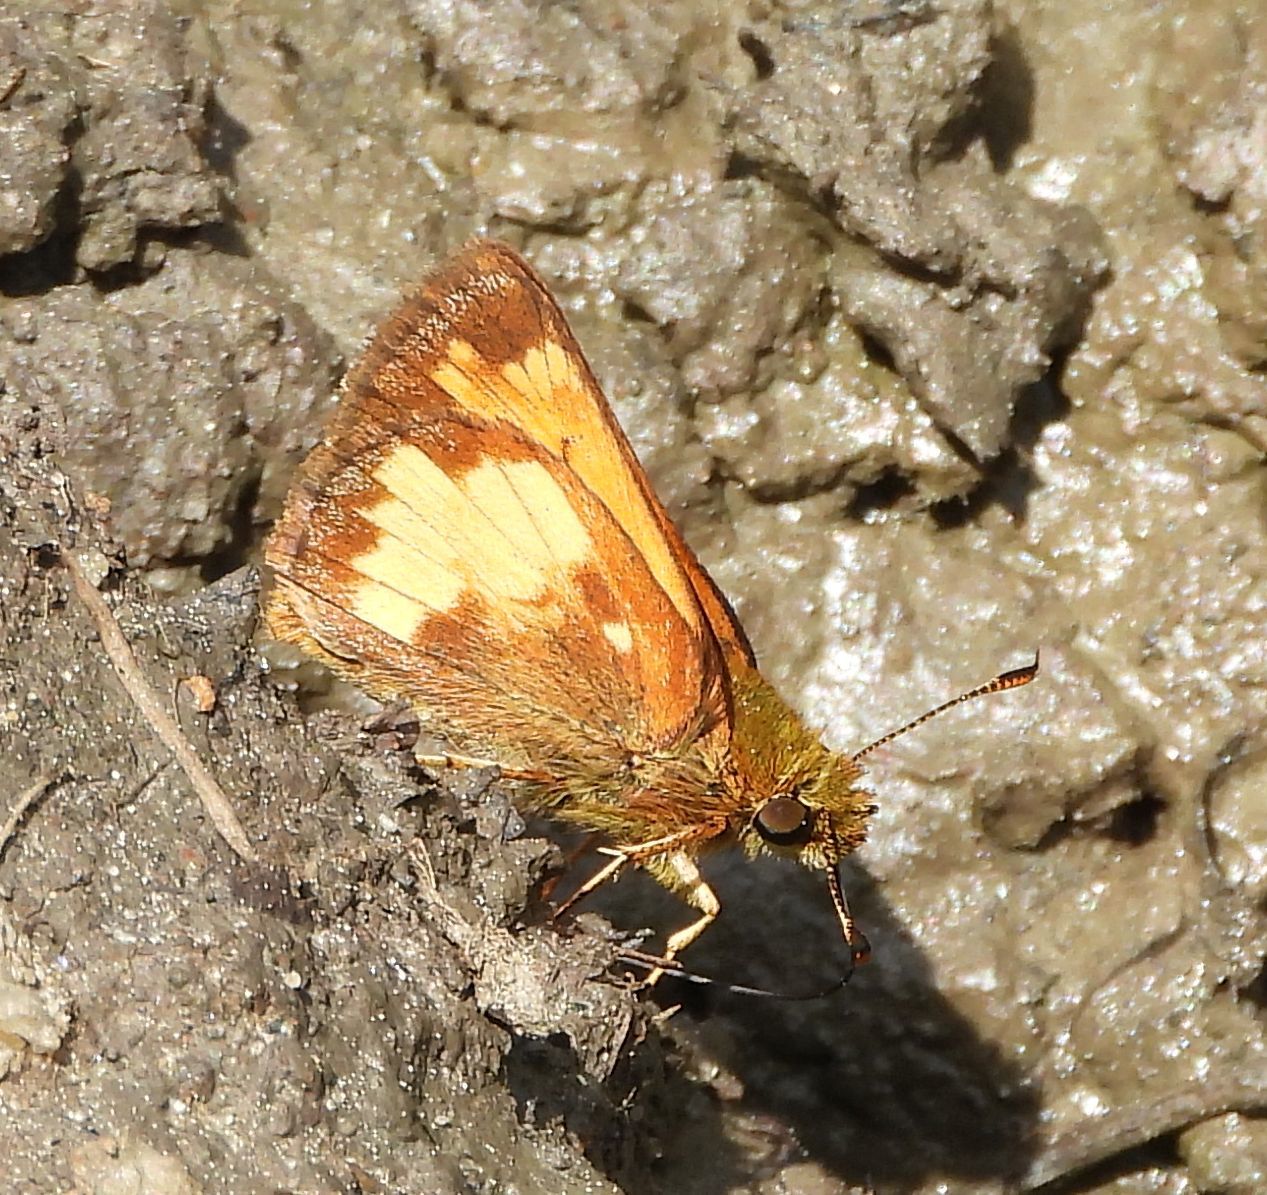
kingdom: Animalia
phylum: Arthropoda
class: Insecta
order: Lepidoptera
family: Hesperiidae
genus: Lon
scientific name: Lon hobomok
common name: Hobomok skipper
